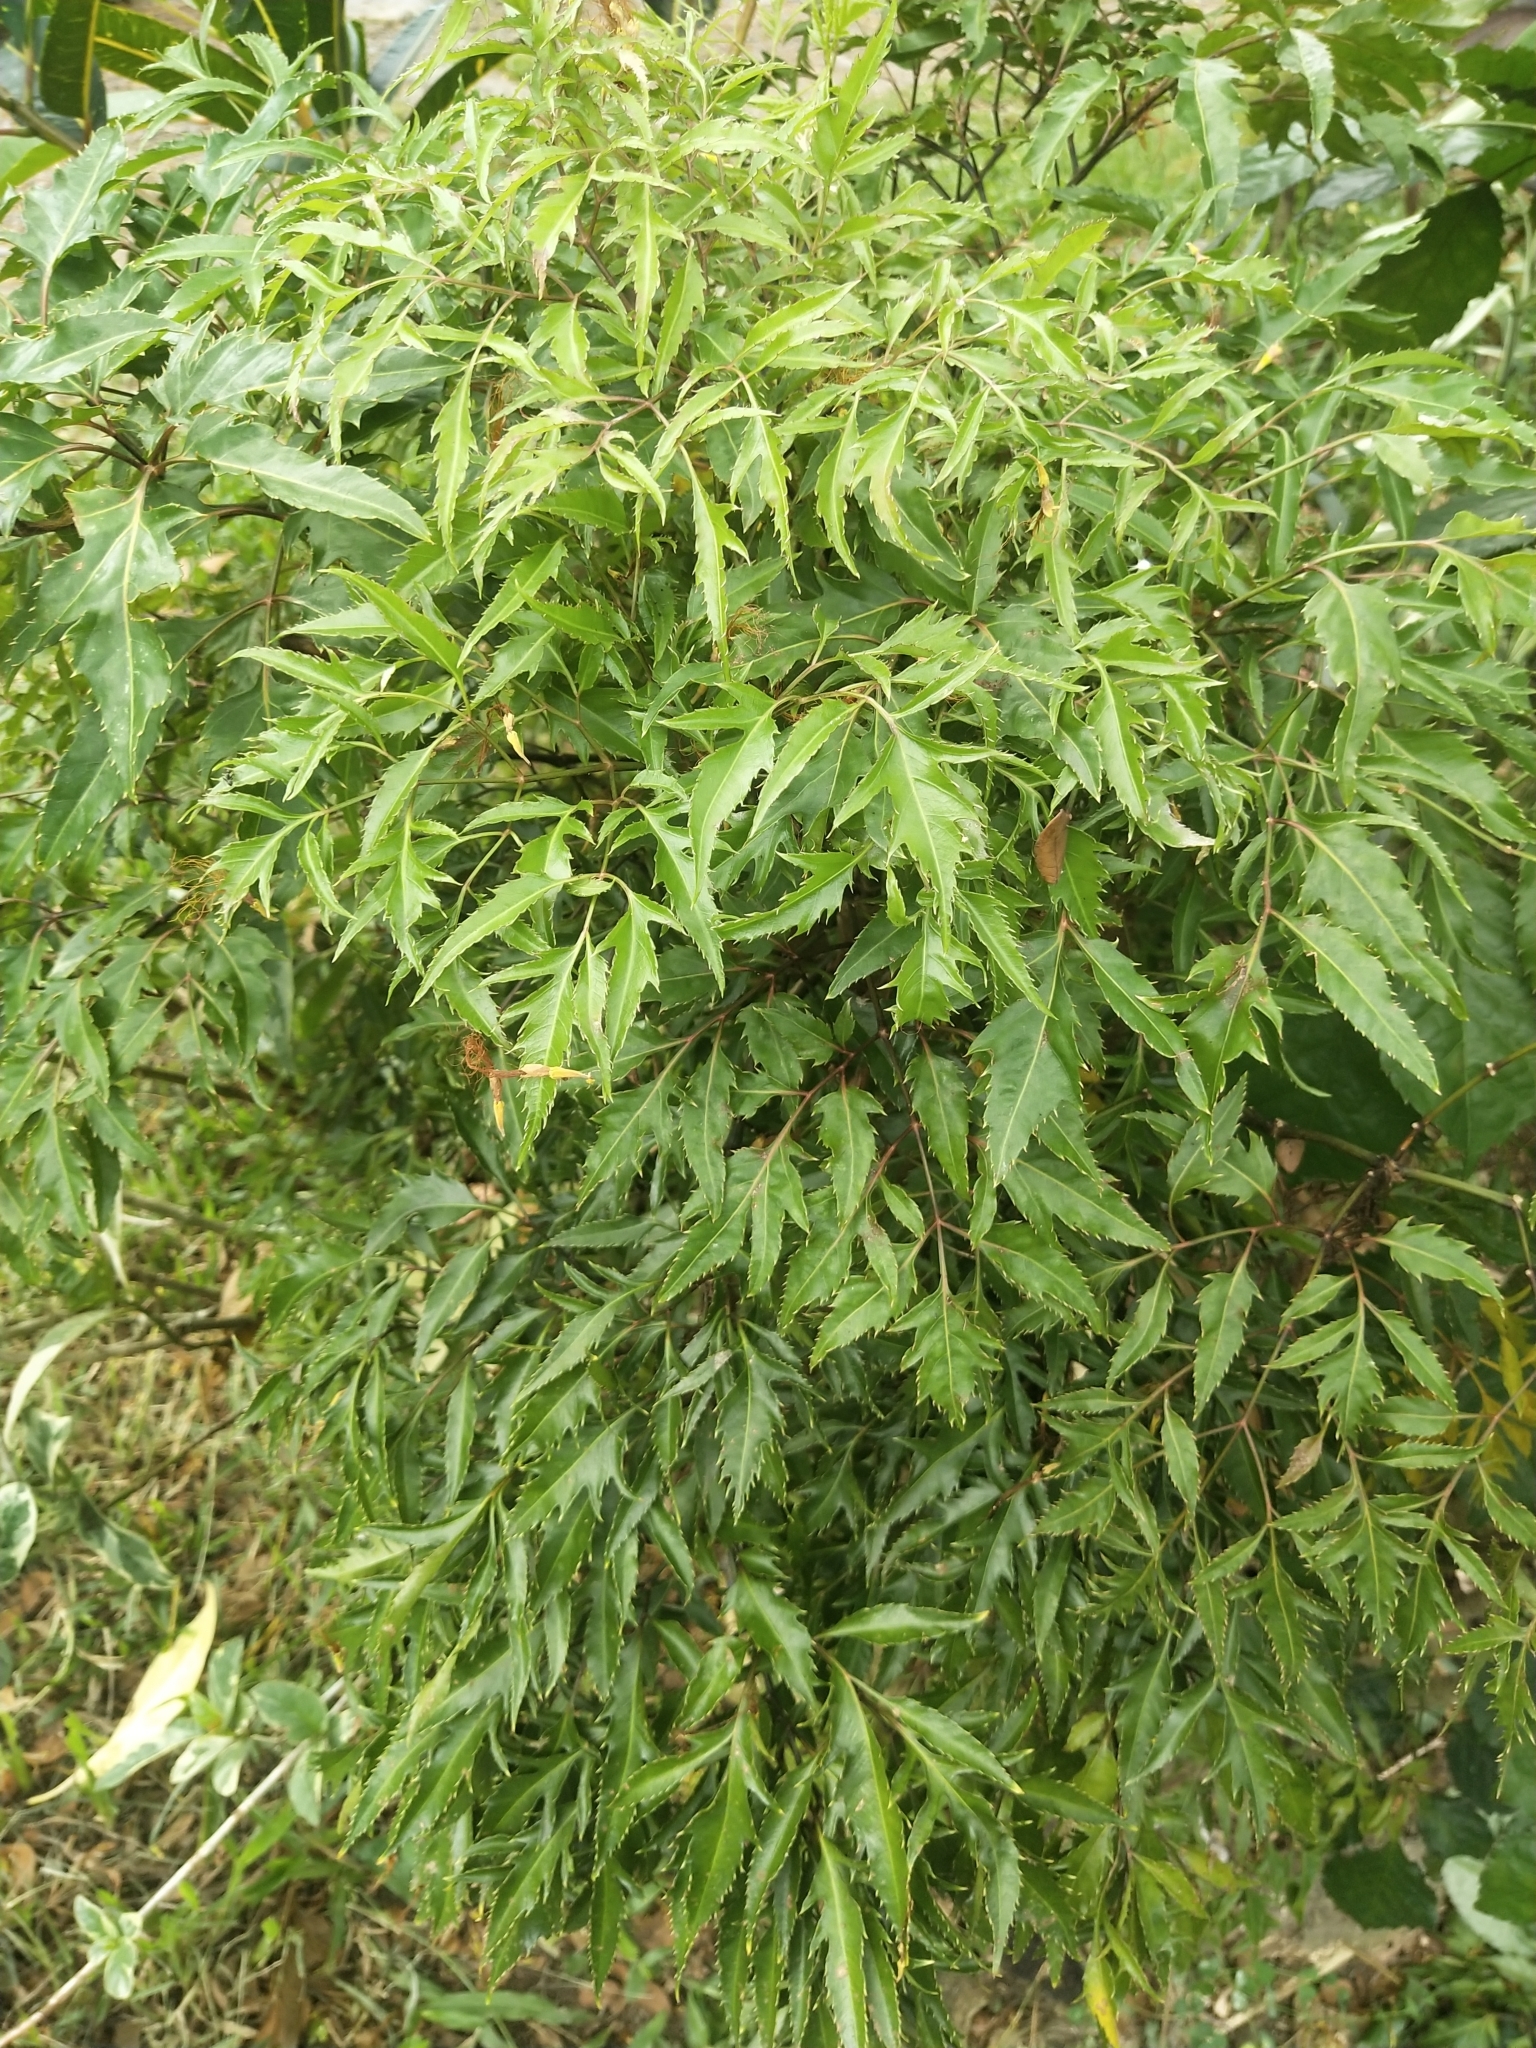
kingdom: Plantae
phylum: Tracheophyta
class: Magnoliopsida
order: Apiales
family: Araliaceae
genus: Polyscias
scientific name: Polyscias fruticosa
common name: Teatree
